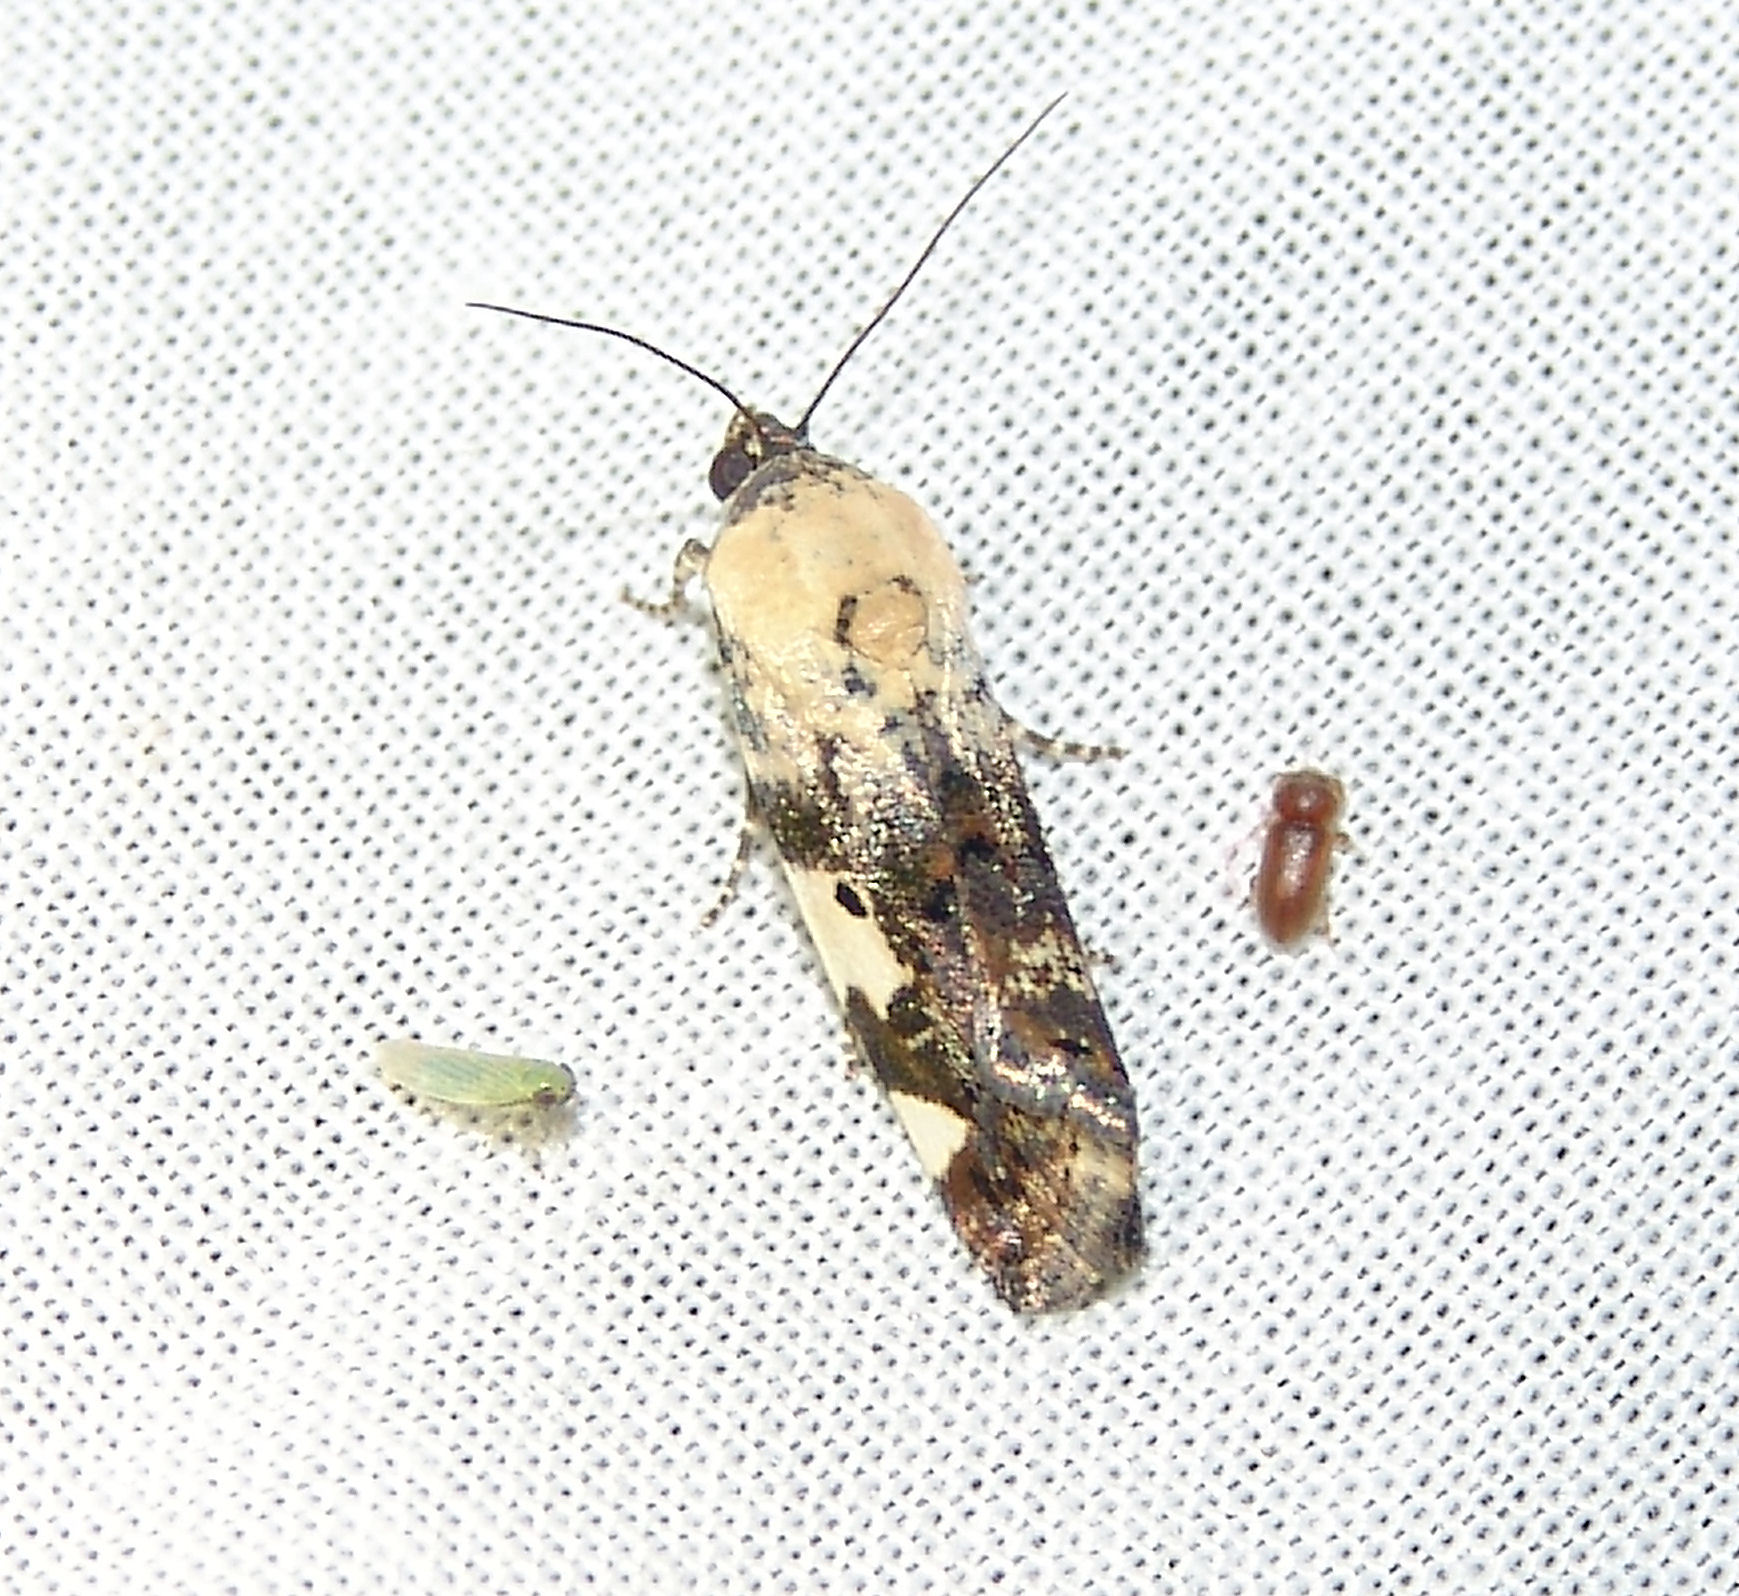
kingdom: Animalia
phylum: Arthropoda
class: Insecta
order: Lepidoptera
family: Noctuidae
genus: Acontia
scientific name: Acontia aprica
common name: Nun
